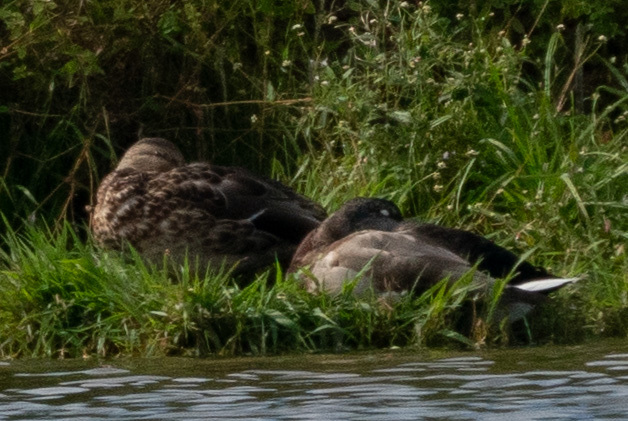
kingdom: Animalia
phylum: Chordata
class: Aves
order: Anseriformes
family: Anatidae
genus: Anas
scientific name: Anas platyrhynchos
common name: Mallard
